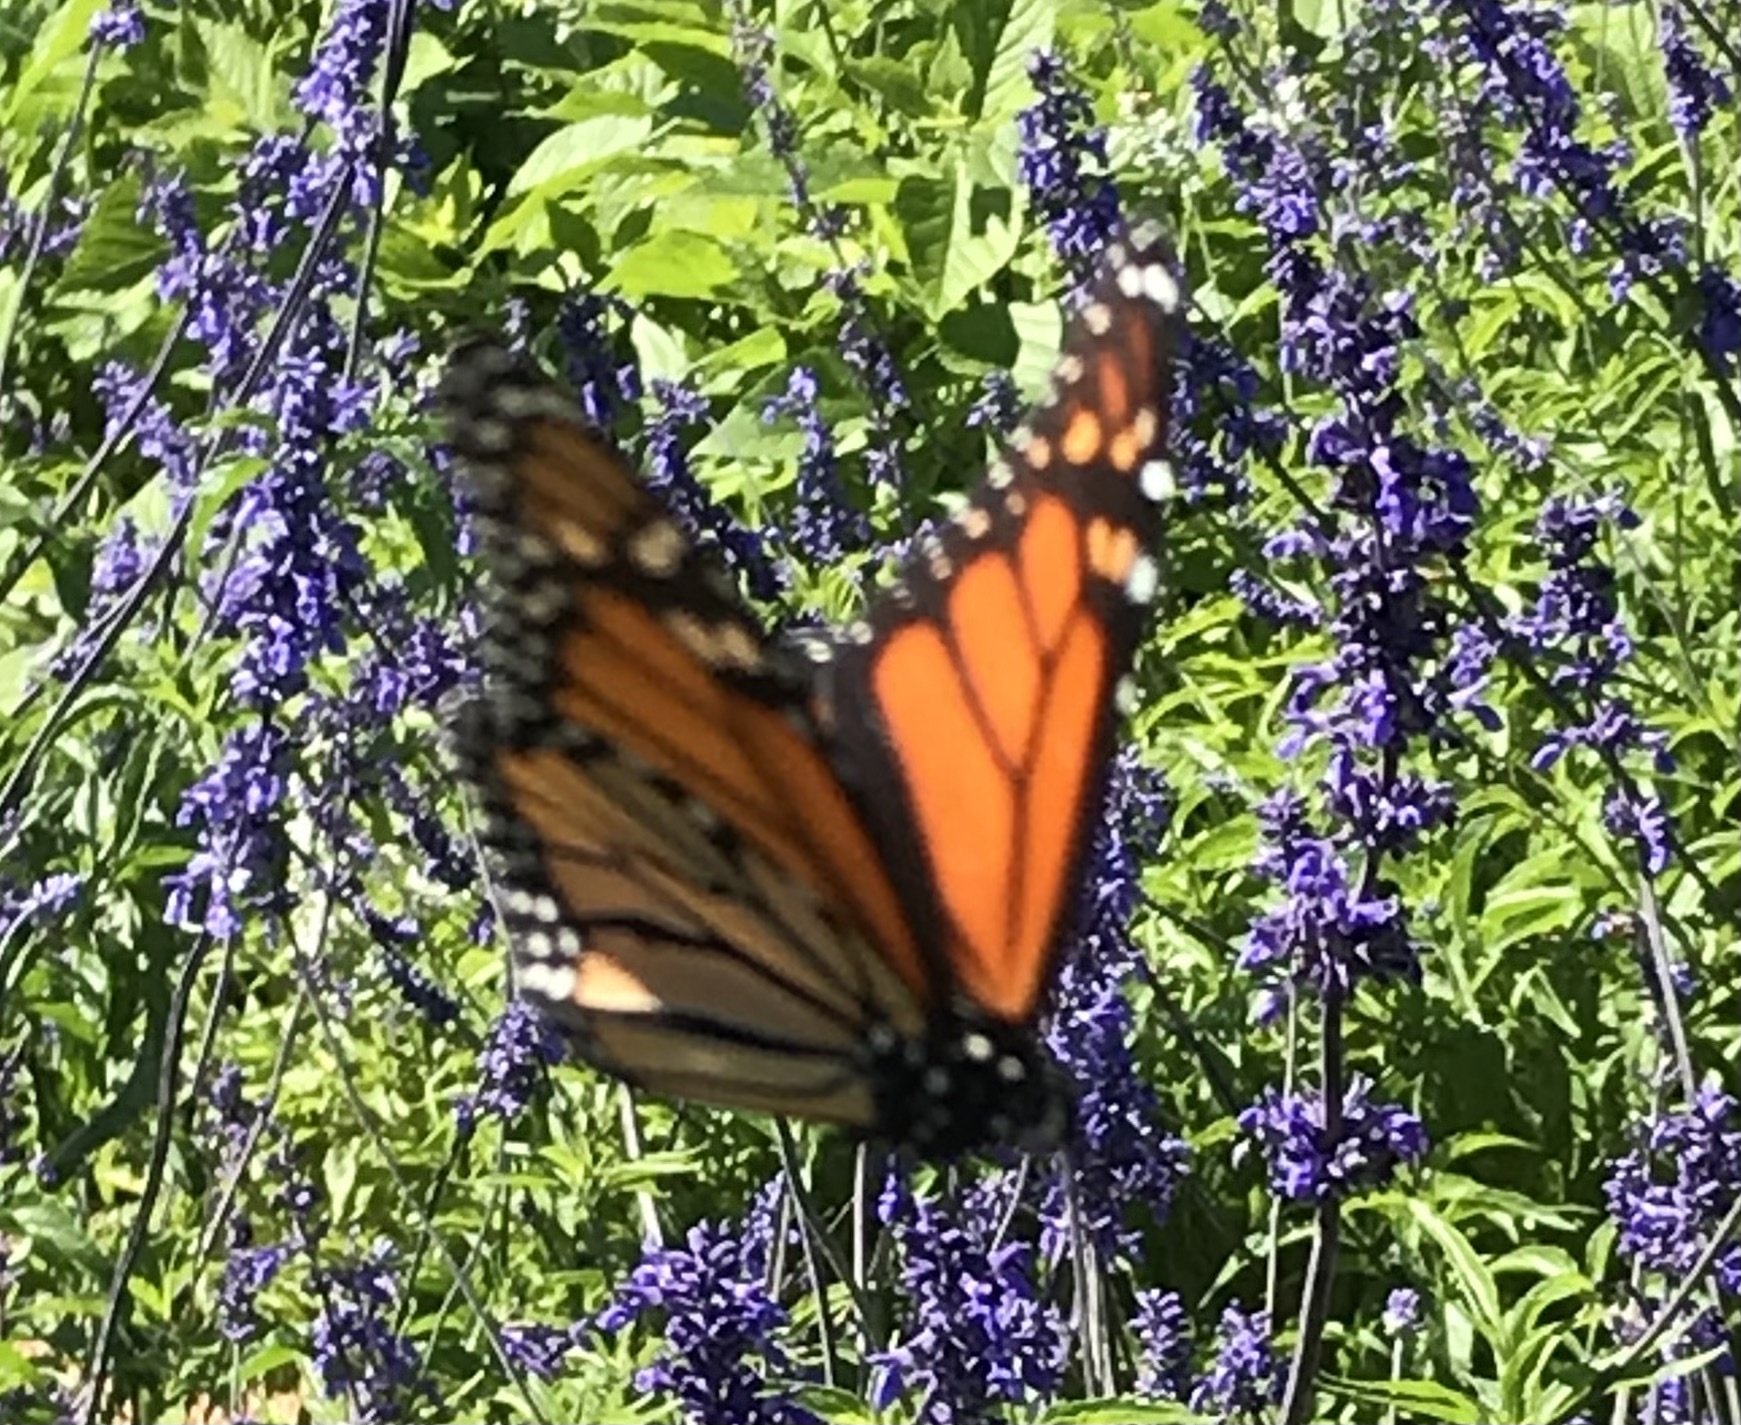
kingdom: Animalia
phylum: Arthropoda
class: Insecta
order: Lepidoptera
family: Nymphalidae
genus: Danaus
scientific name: Danaus plexippus
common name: Monarch
